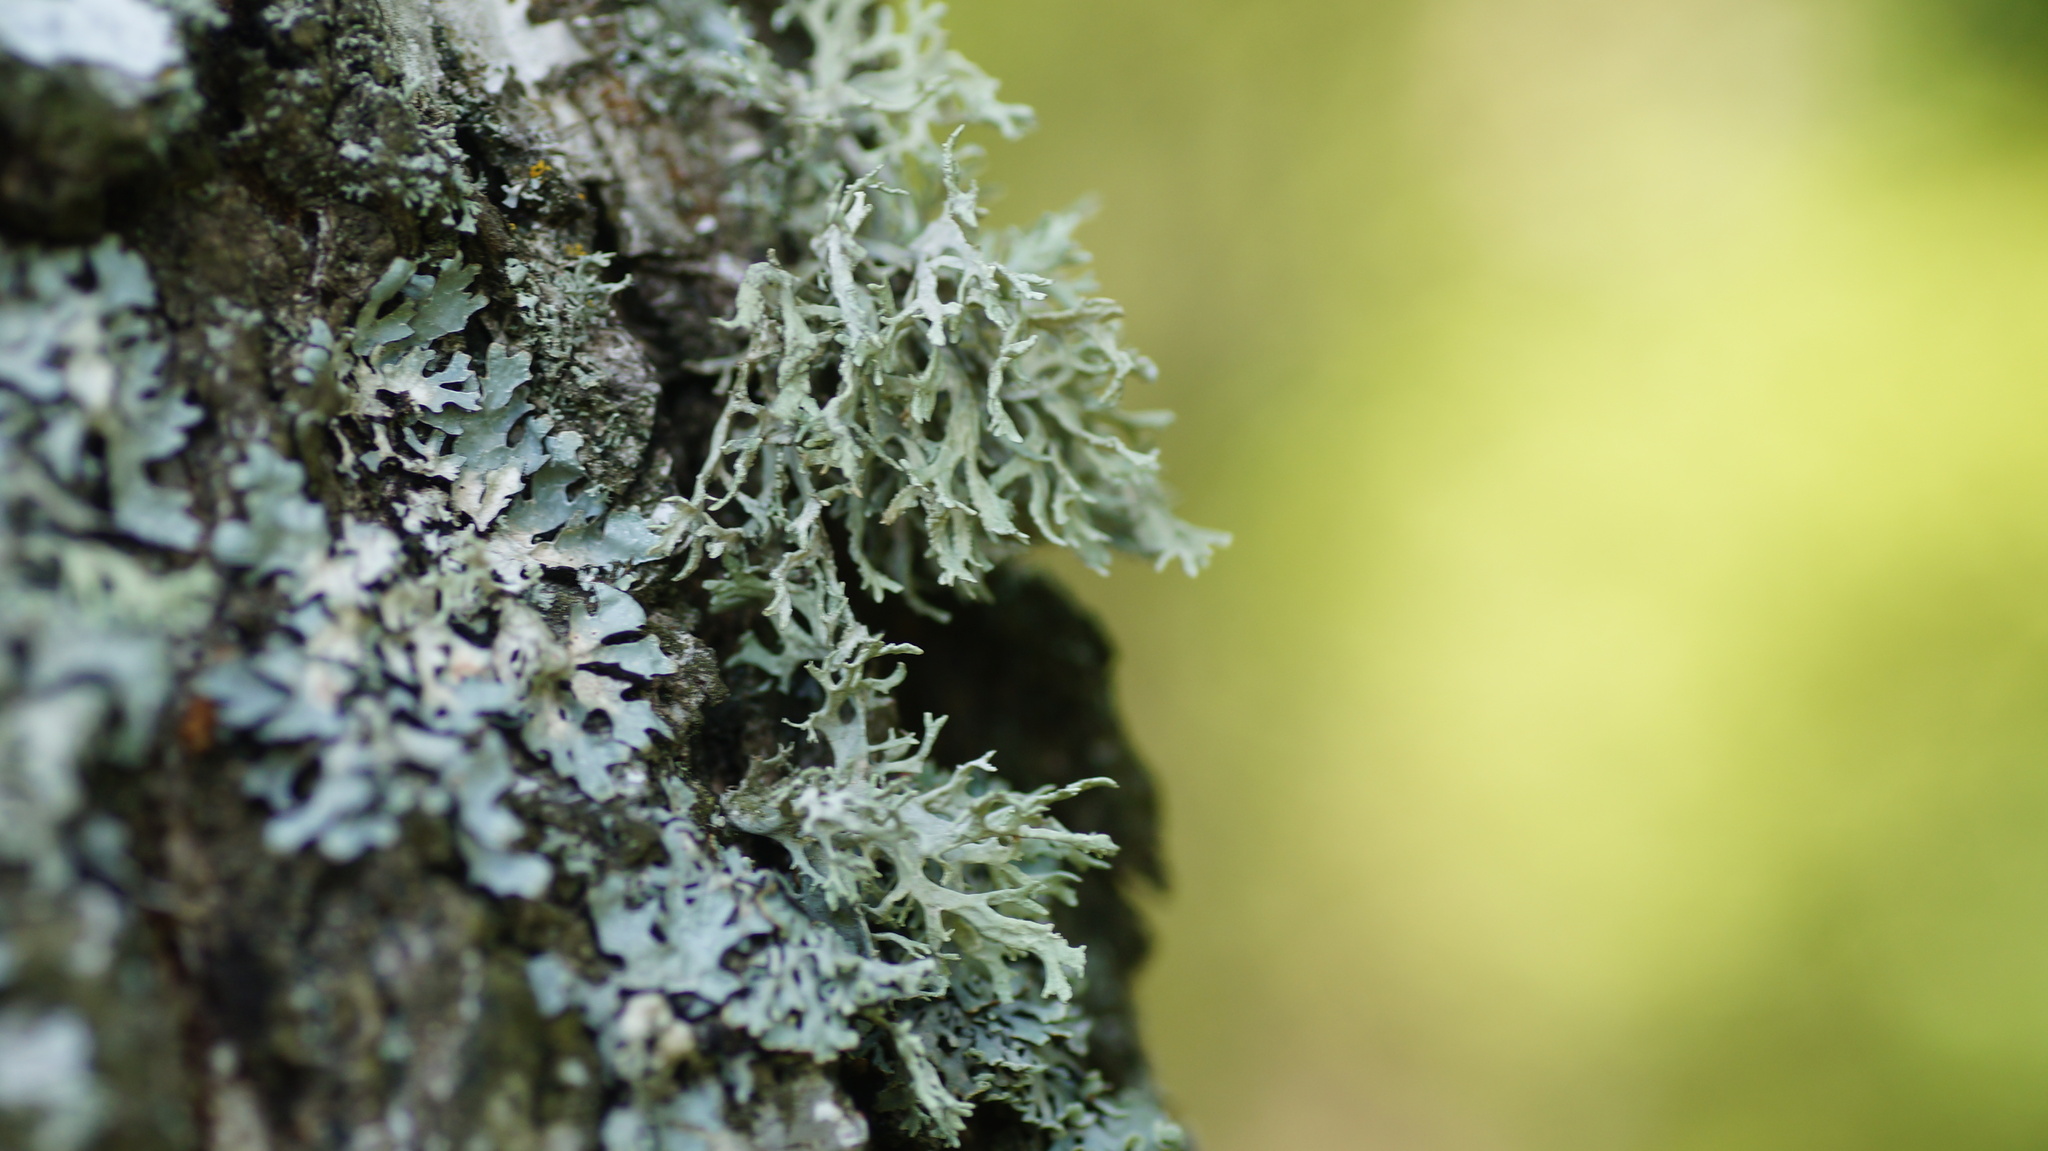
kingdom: Fungi
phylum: Ascomycota
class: Lecanoromycetes
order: Lecanorales
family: Parmeliaceae
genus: Evernia
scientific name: Evernia prunastri
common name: Oak moss
